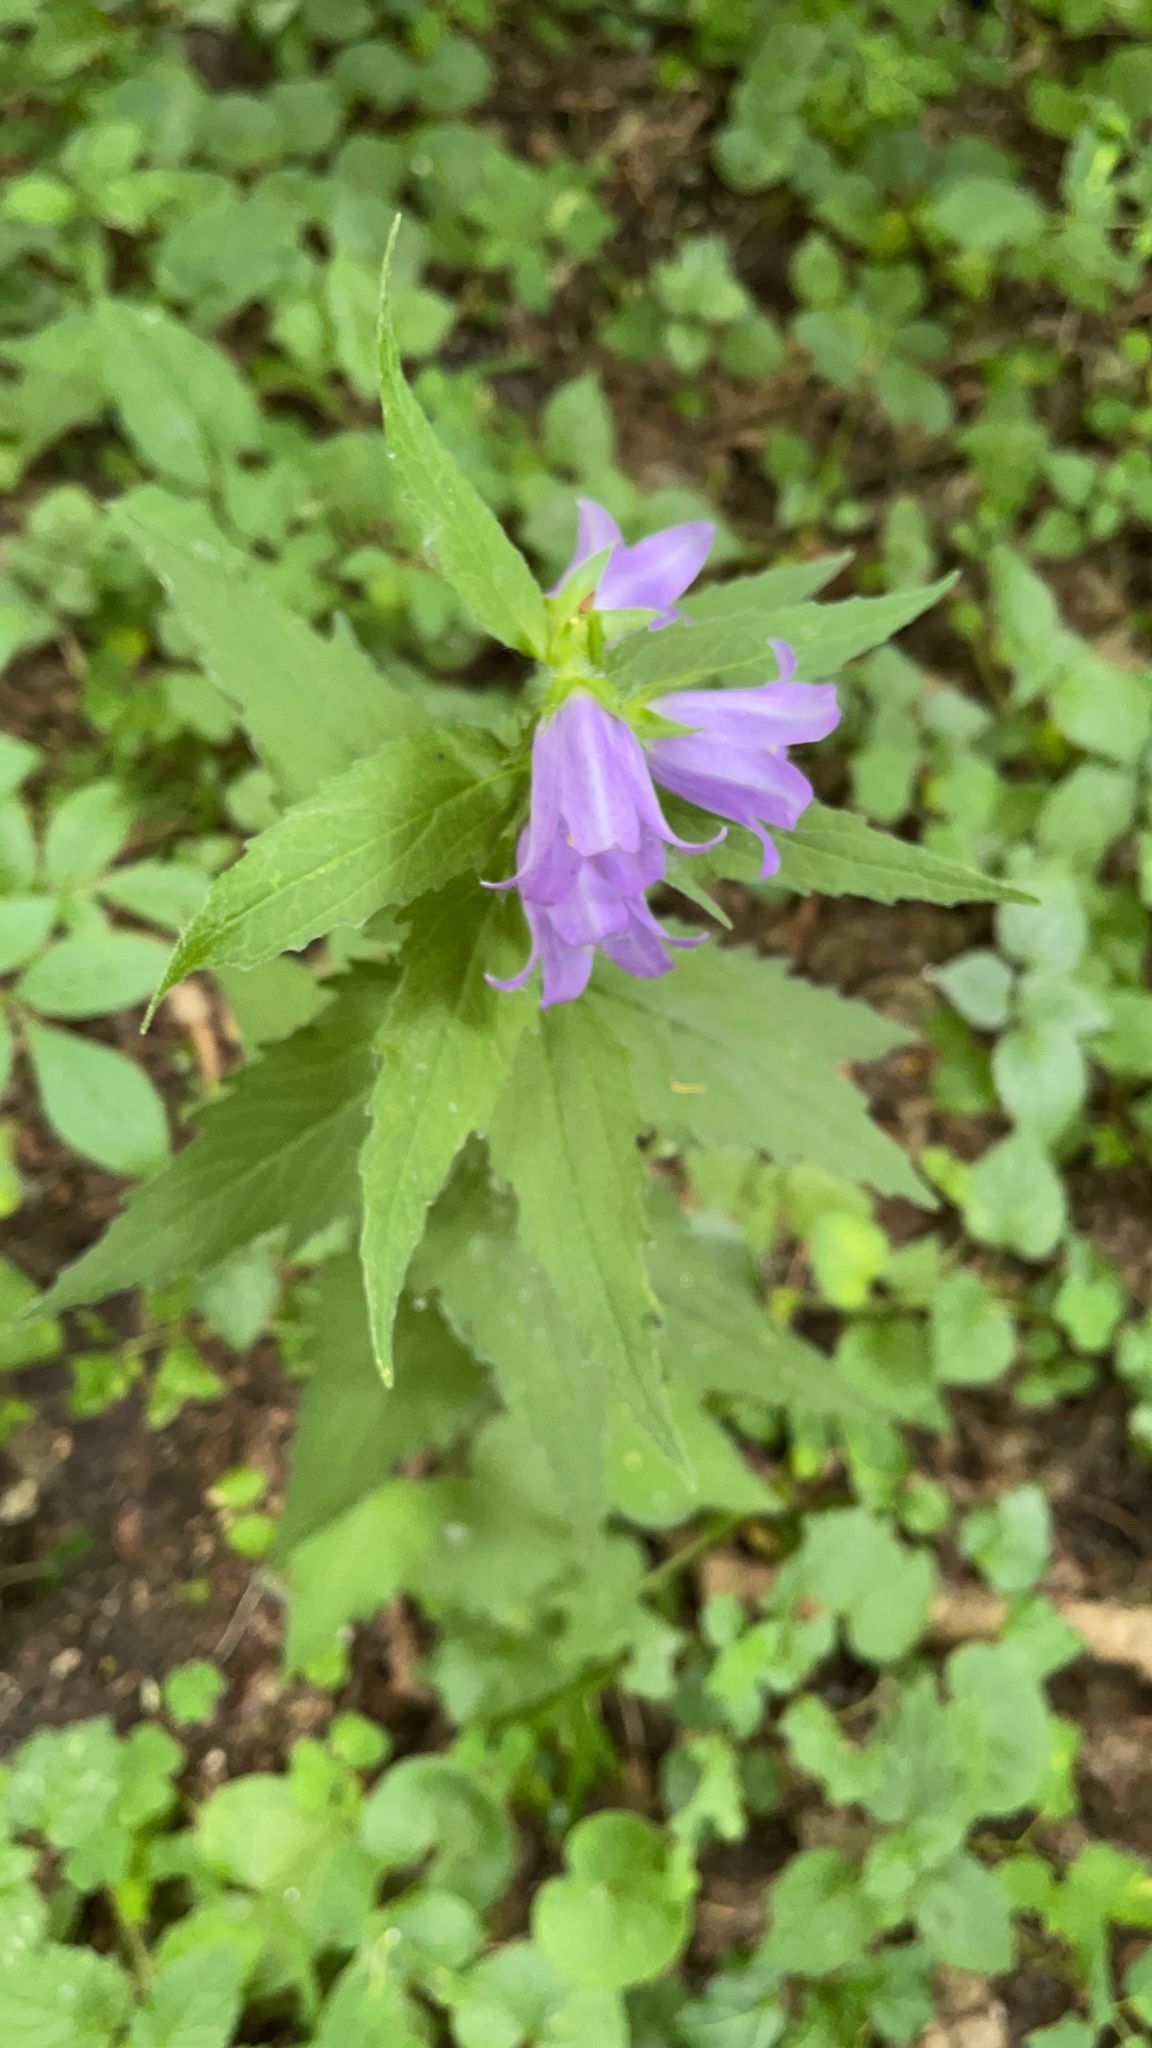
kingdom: Plantae
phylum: Tracheophyta
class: Magnoliopsida
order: Asterales
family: Campanulaceae
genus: Campanula
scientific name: Campanula trachelium
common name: Nettle-leaved bellflower
